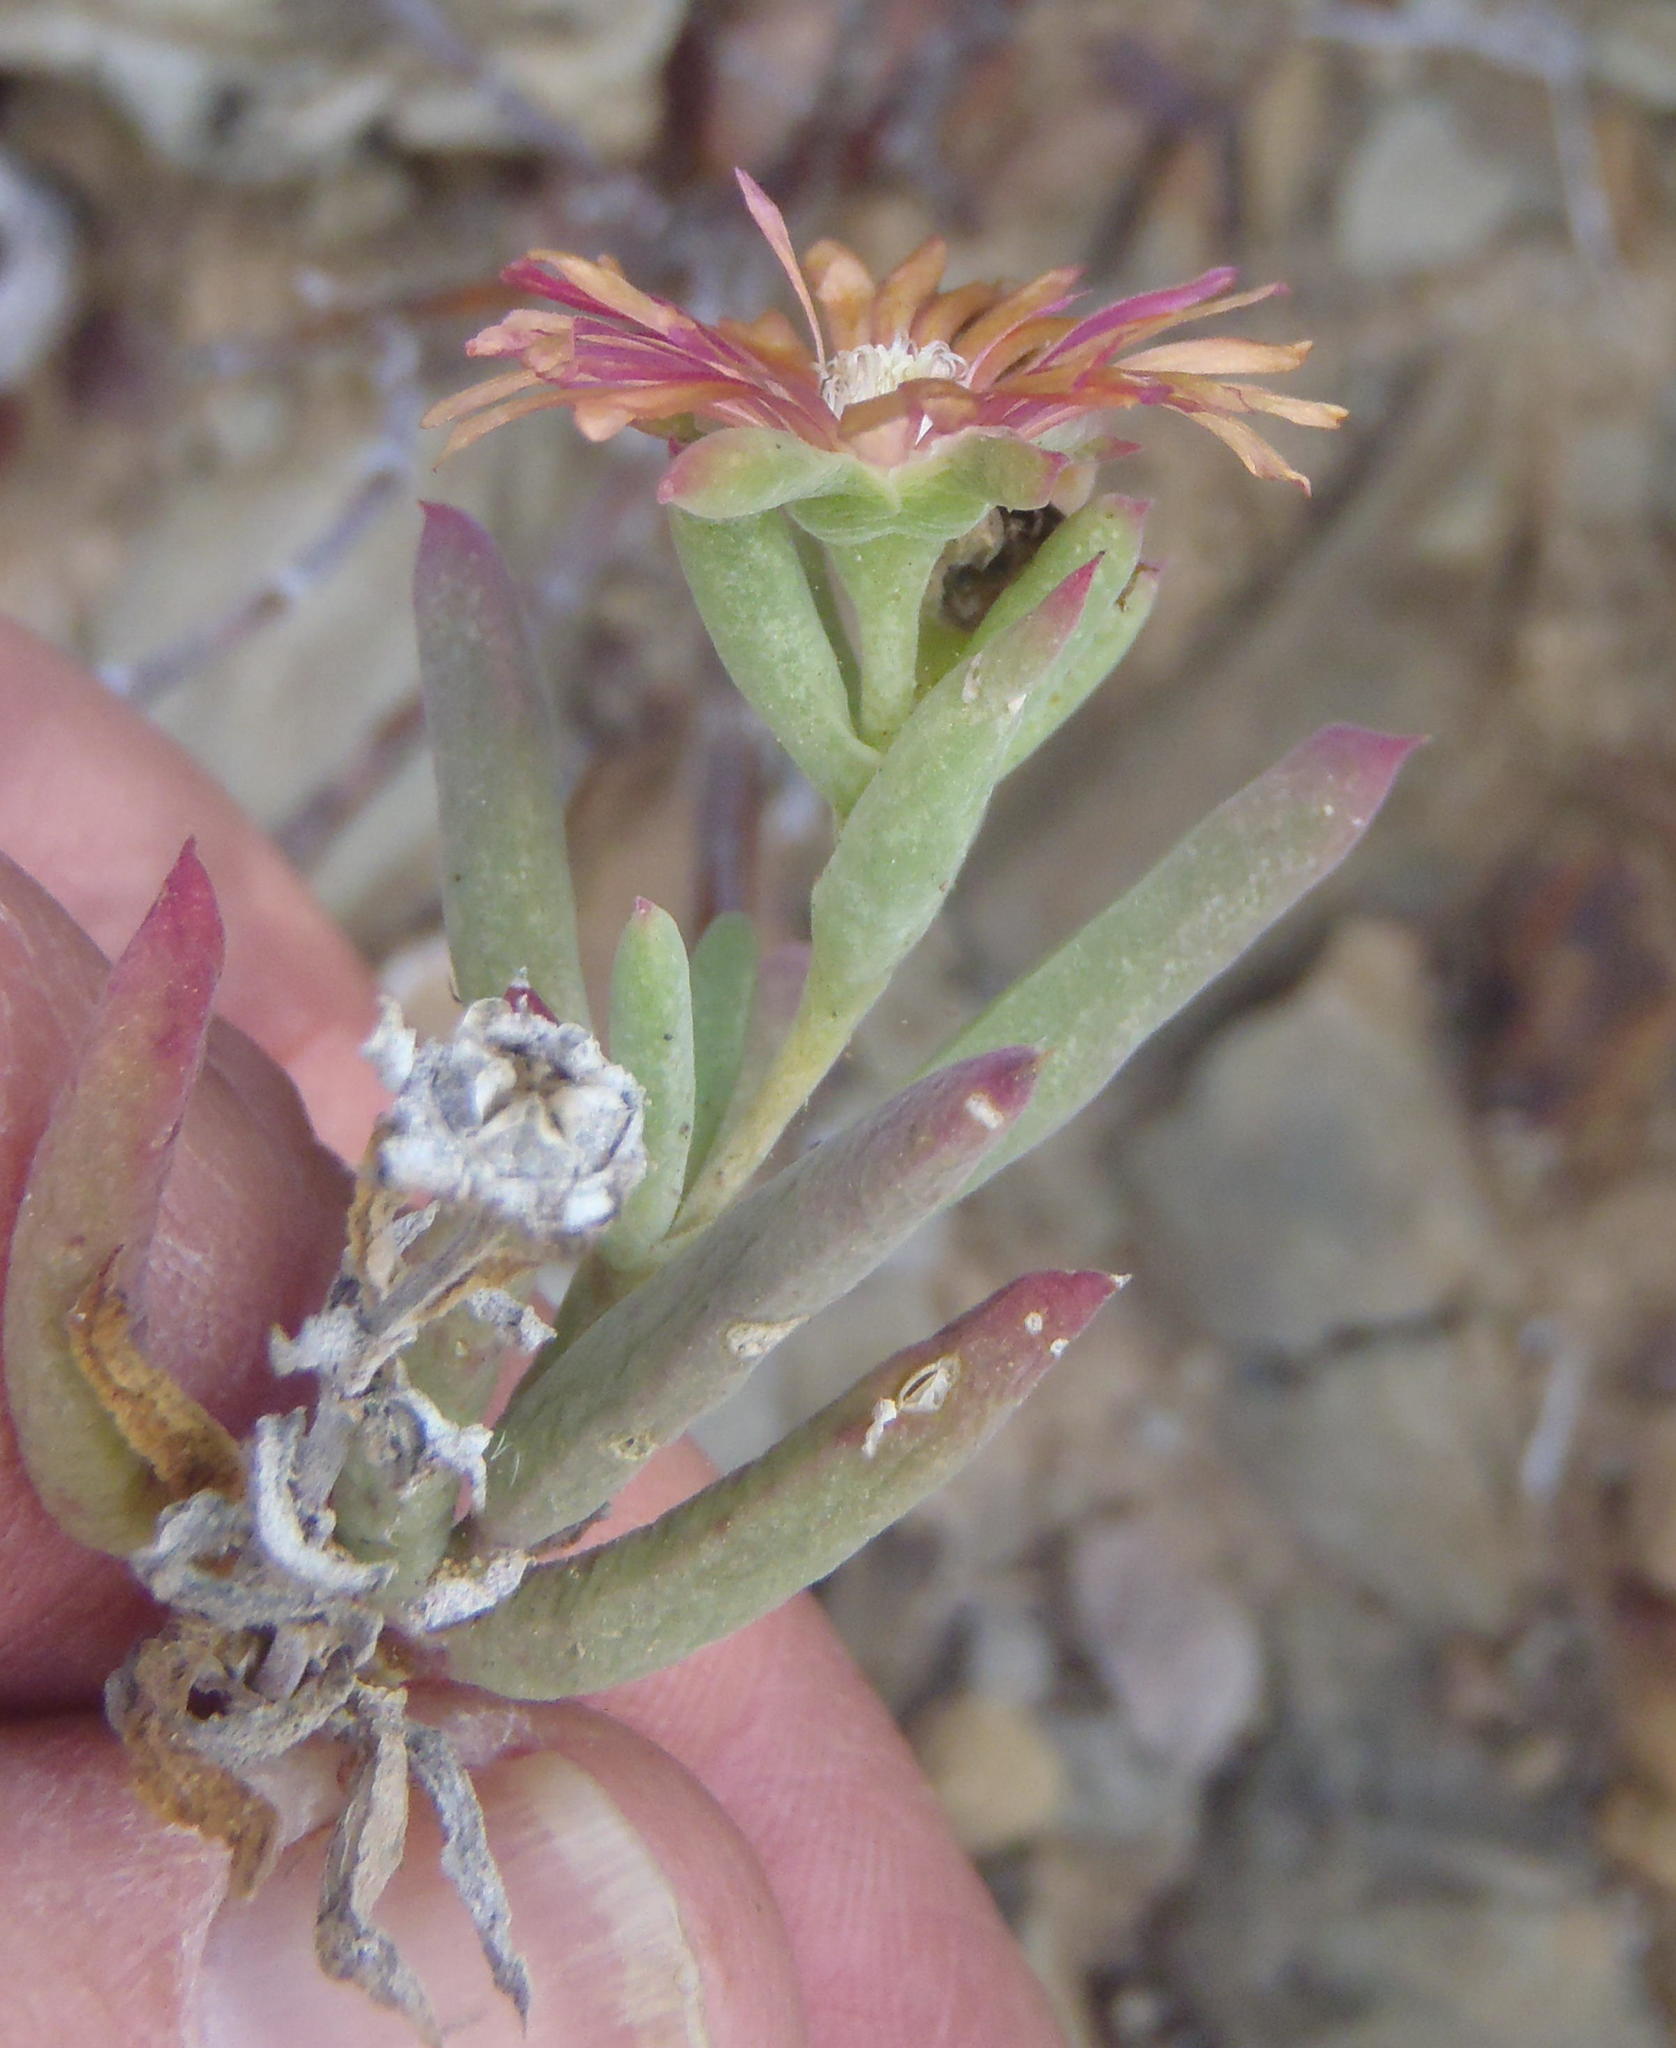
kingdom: Plantae
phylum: Tracheophyta
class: Magnoliopsida
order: Caryophyllales
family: Aizoaceae
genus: Mestoklema
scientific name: Mestoklema tuberosum
